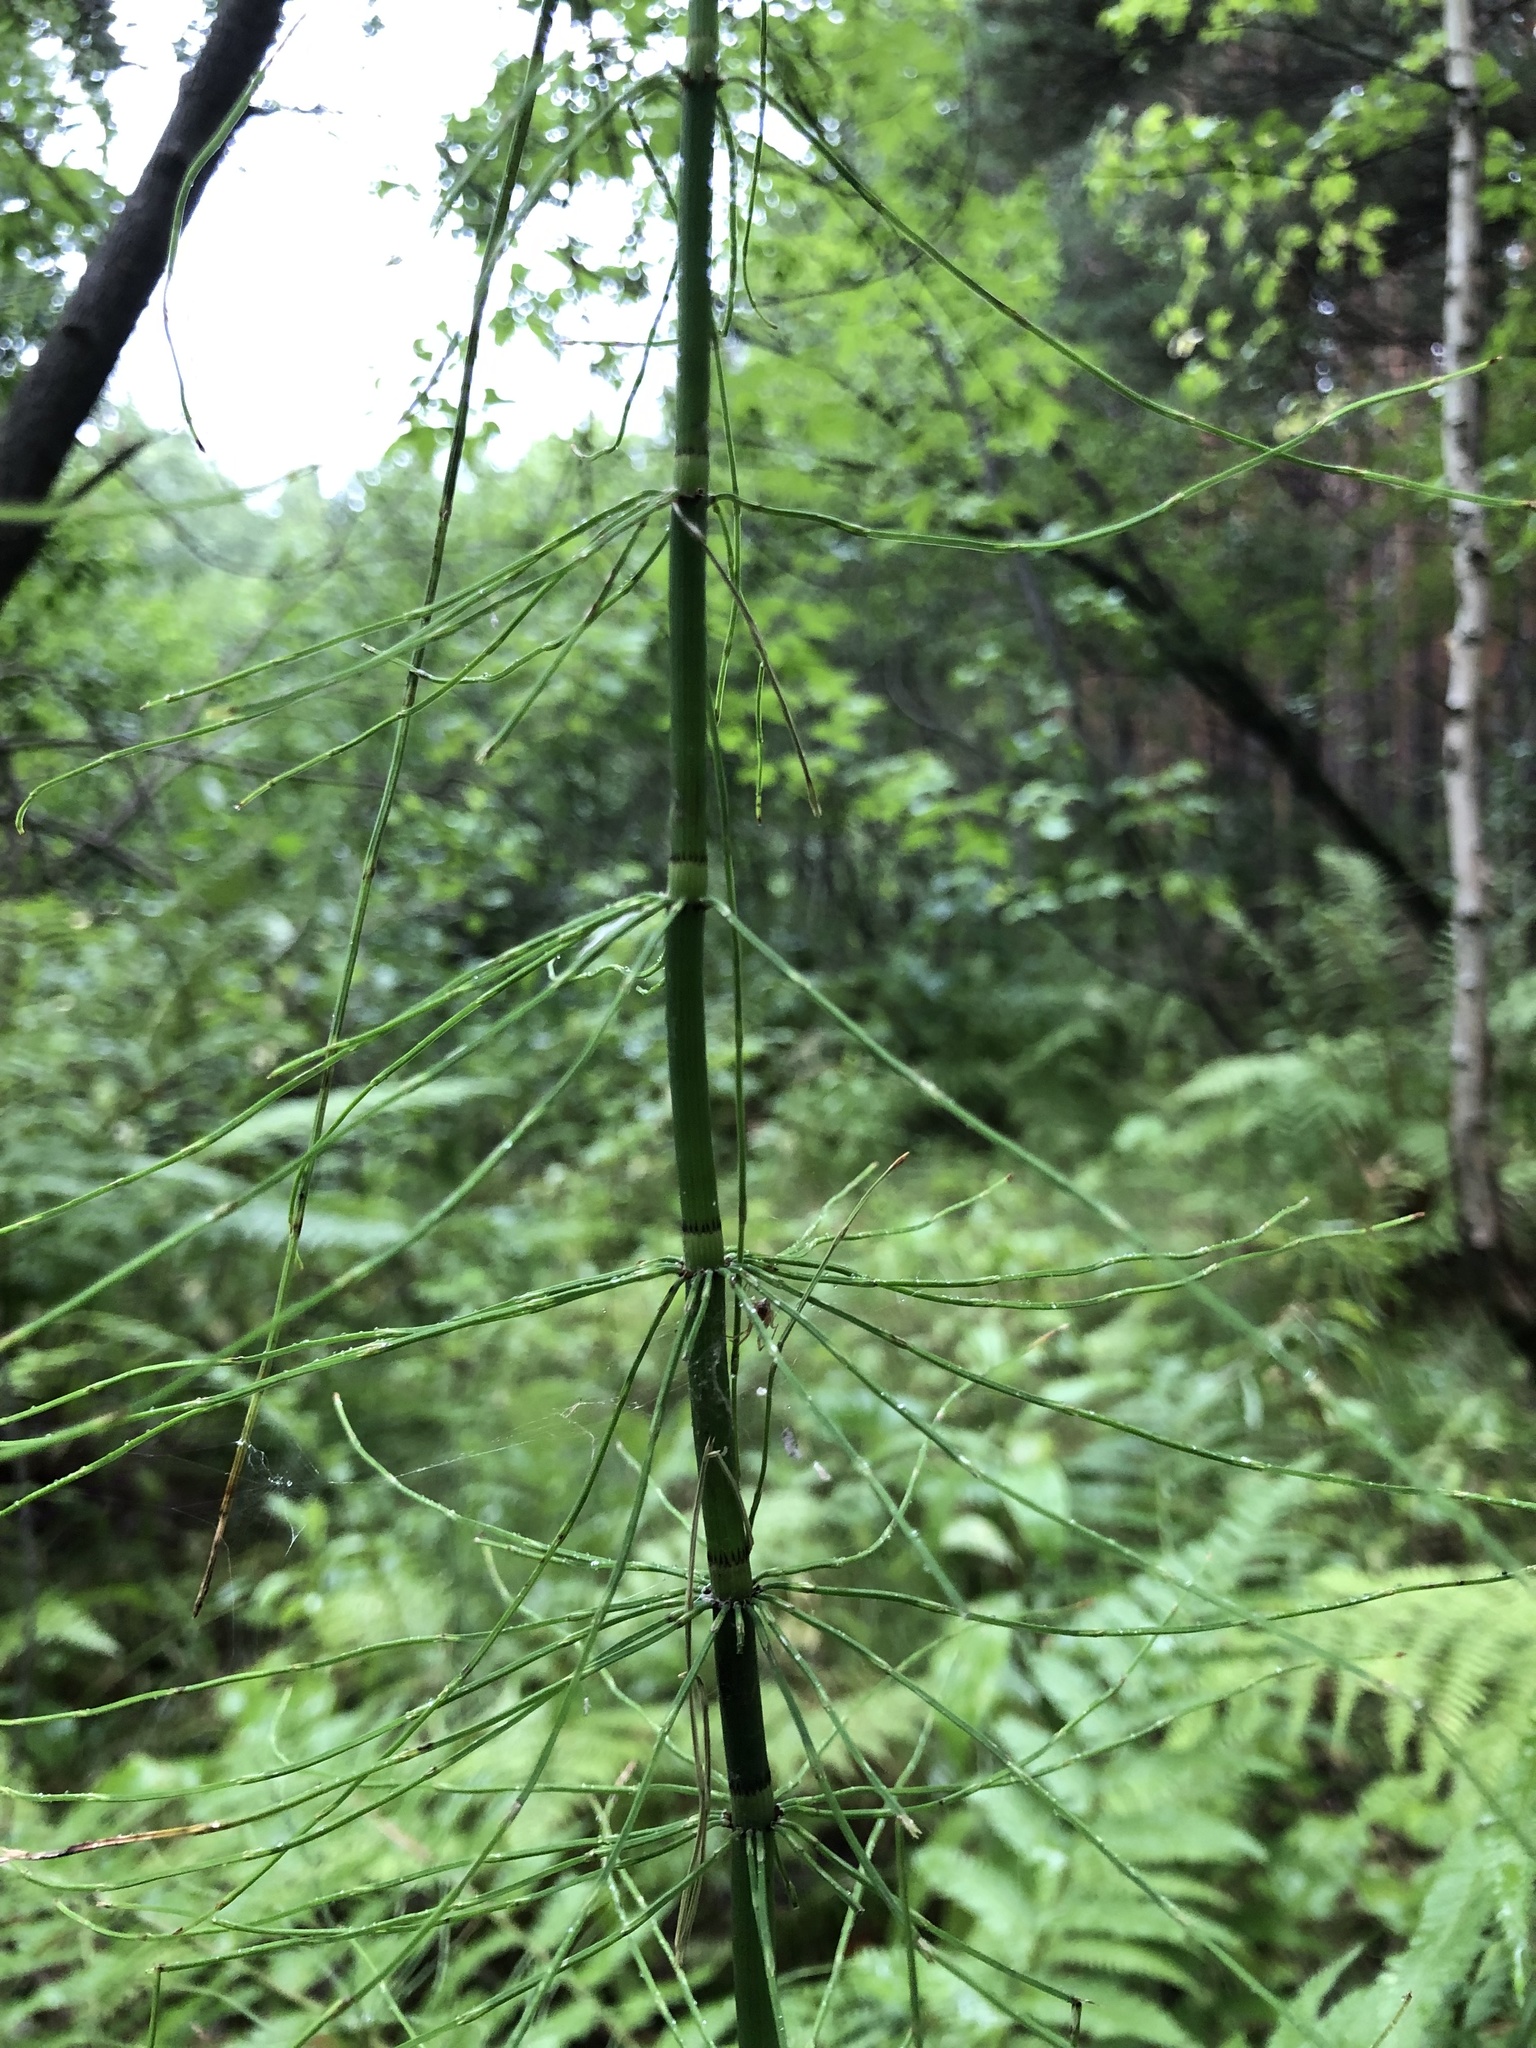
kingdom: Plantae
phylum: Tracheophyta
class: Polypodiopsida
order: Equisetales
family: Equisetaceae
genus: Equisetum
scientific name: Equisetum fluviatile
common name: Water horsetail
